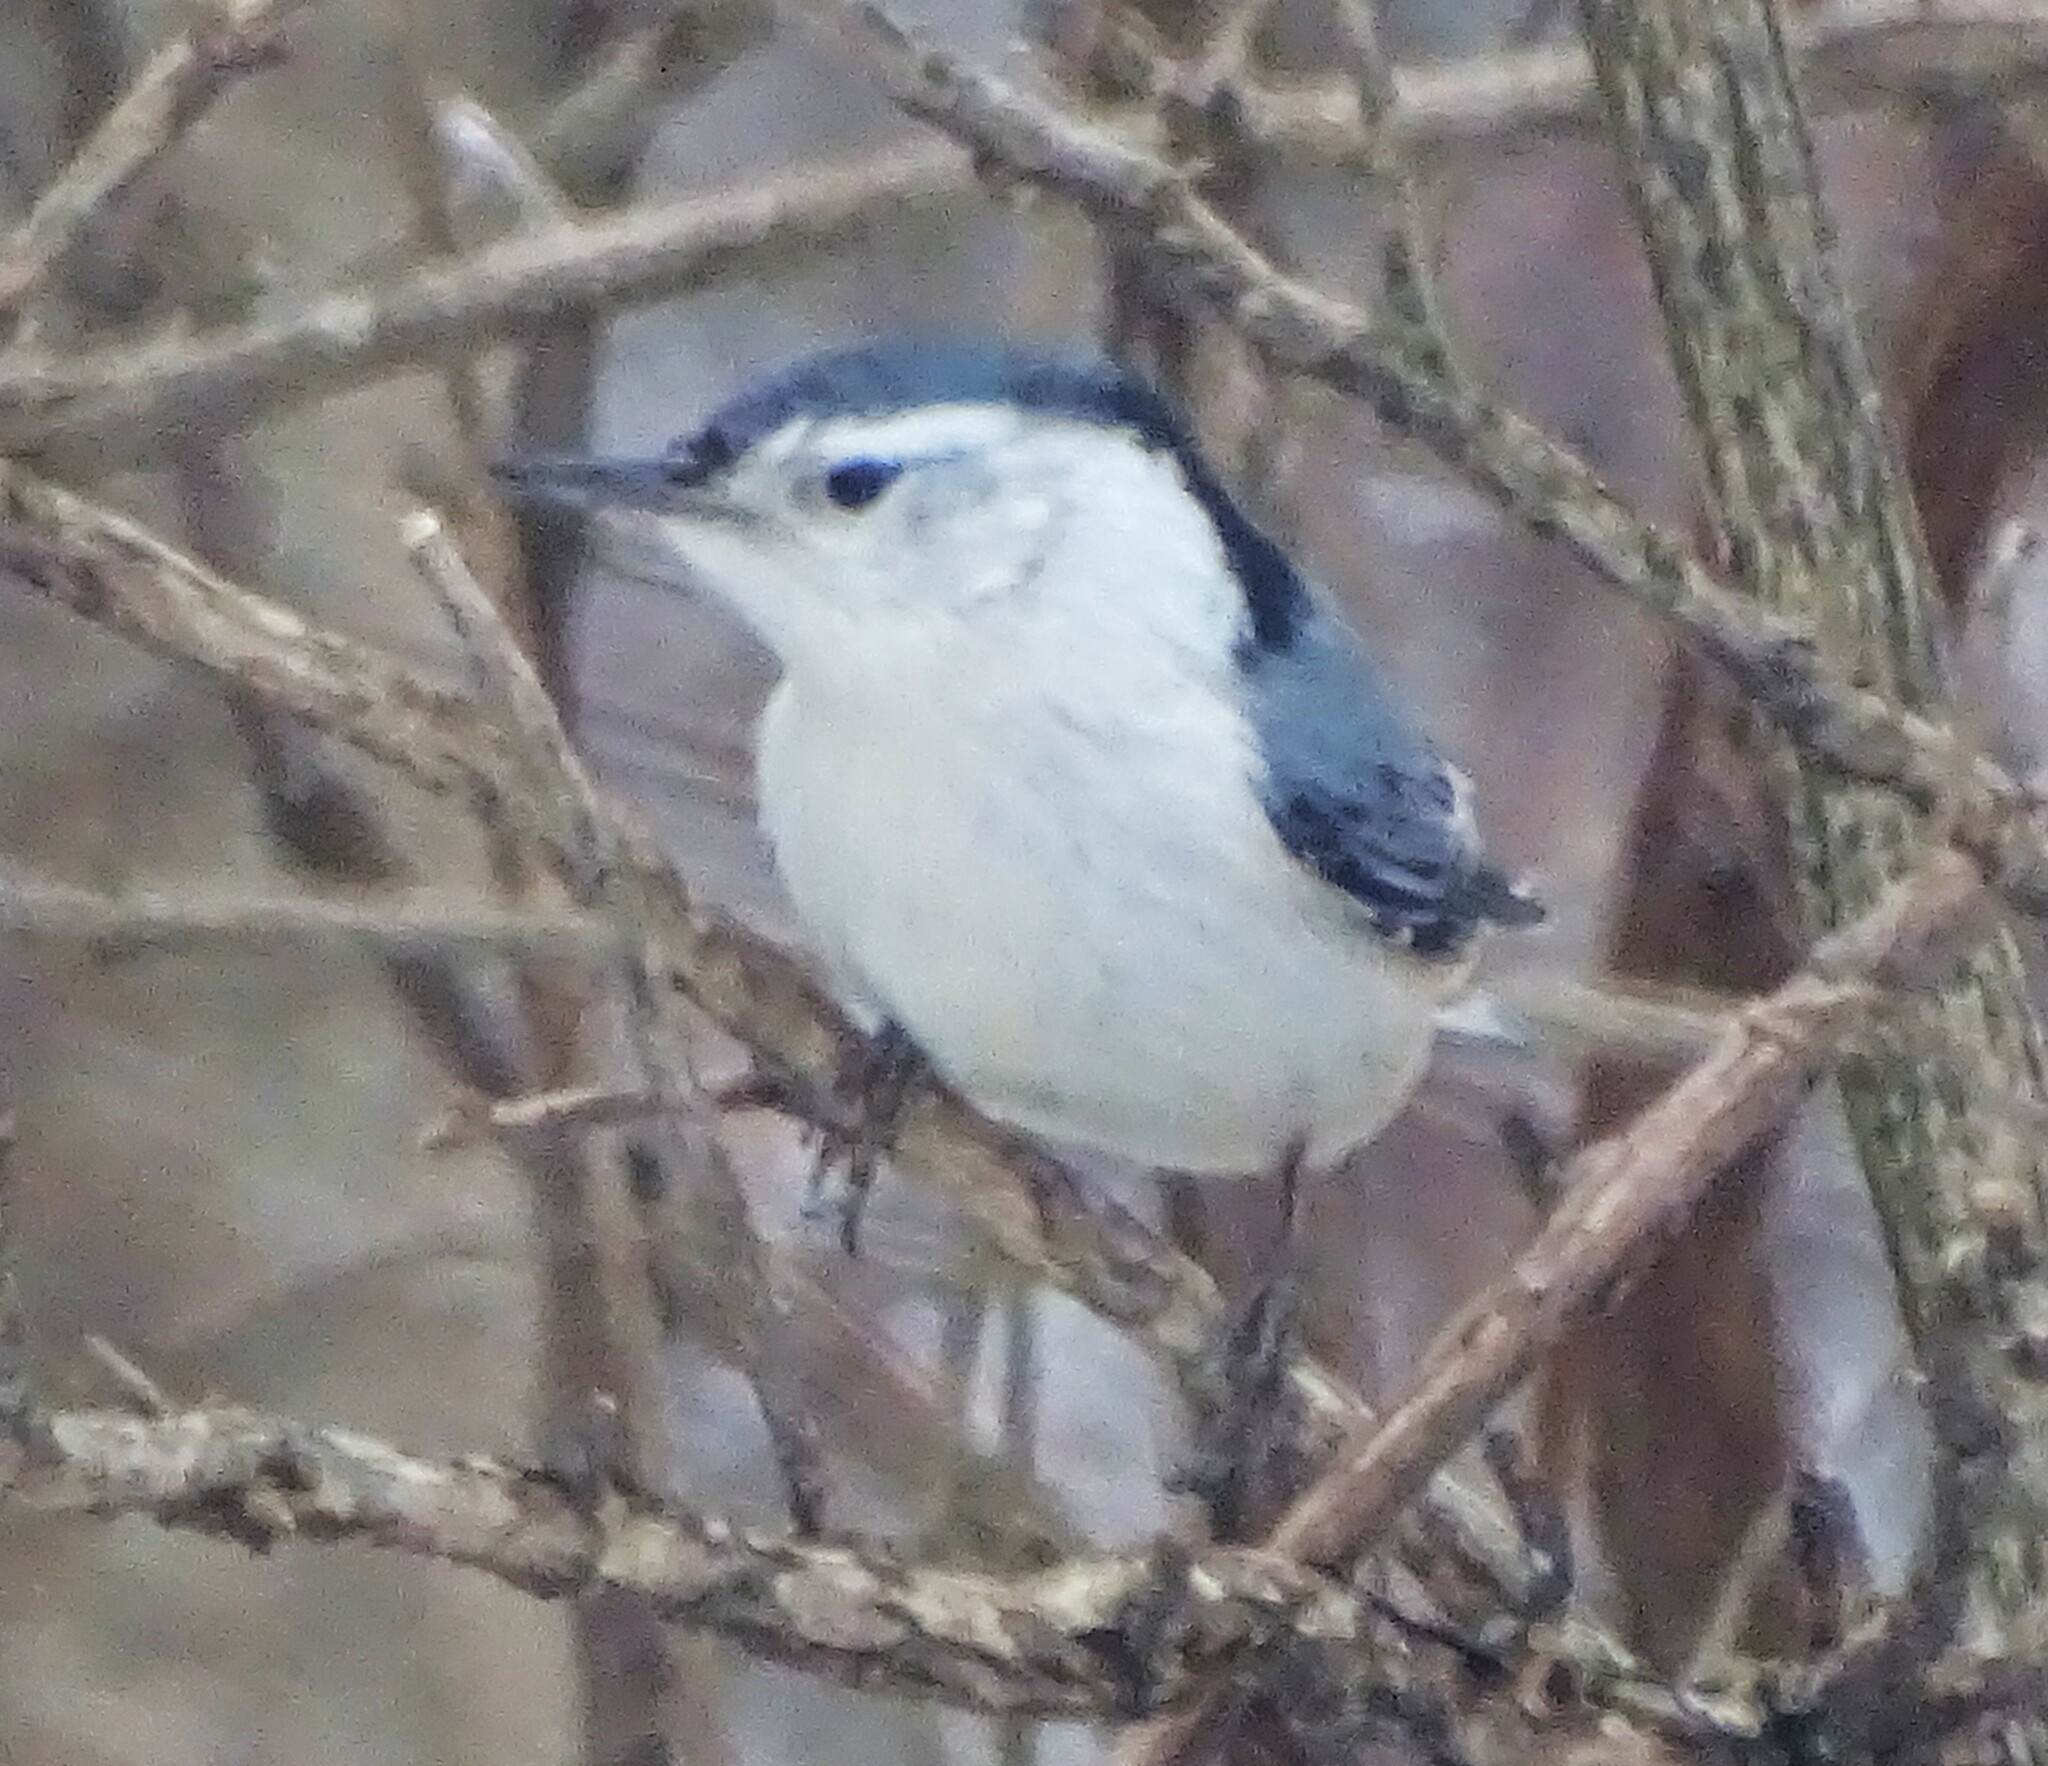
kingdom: Animalia
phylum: Chordata
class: Aves
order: Passeriformes
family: Sittidae
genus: Sitta
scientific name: Sitta carolinensis
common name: White-breasted nuthatch
